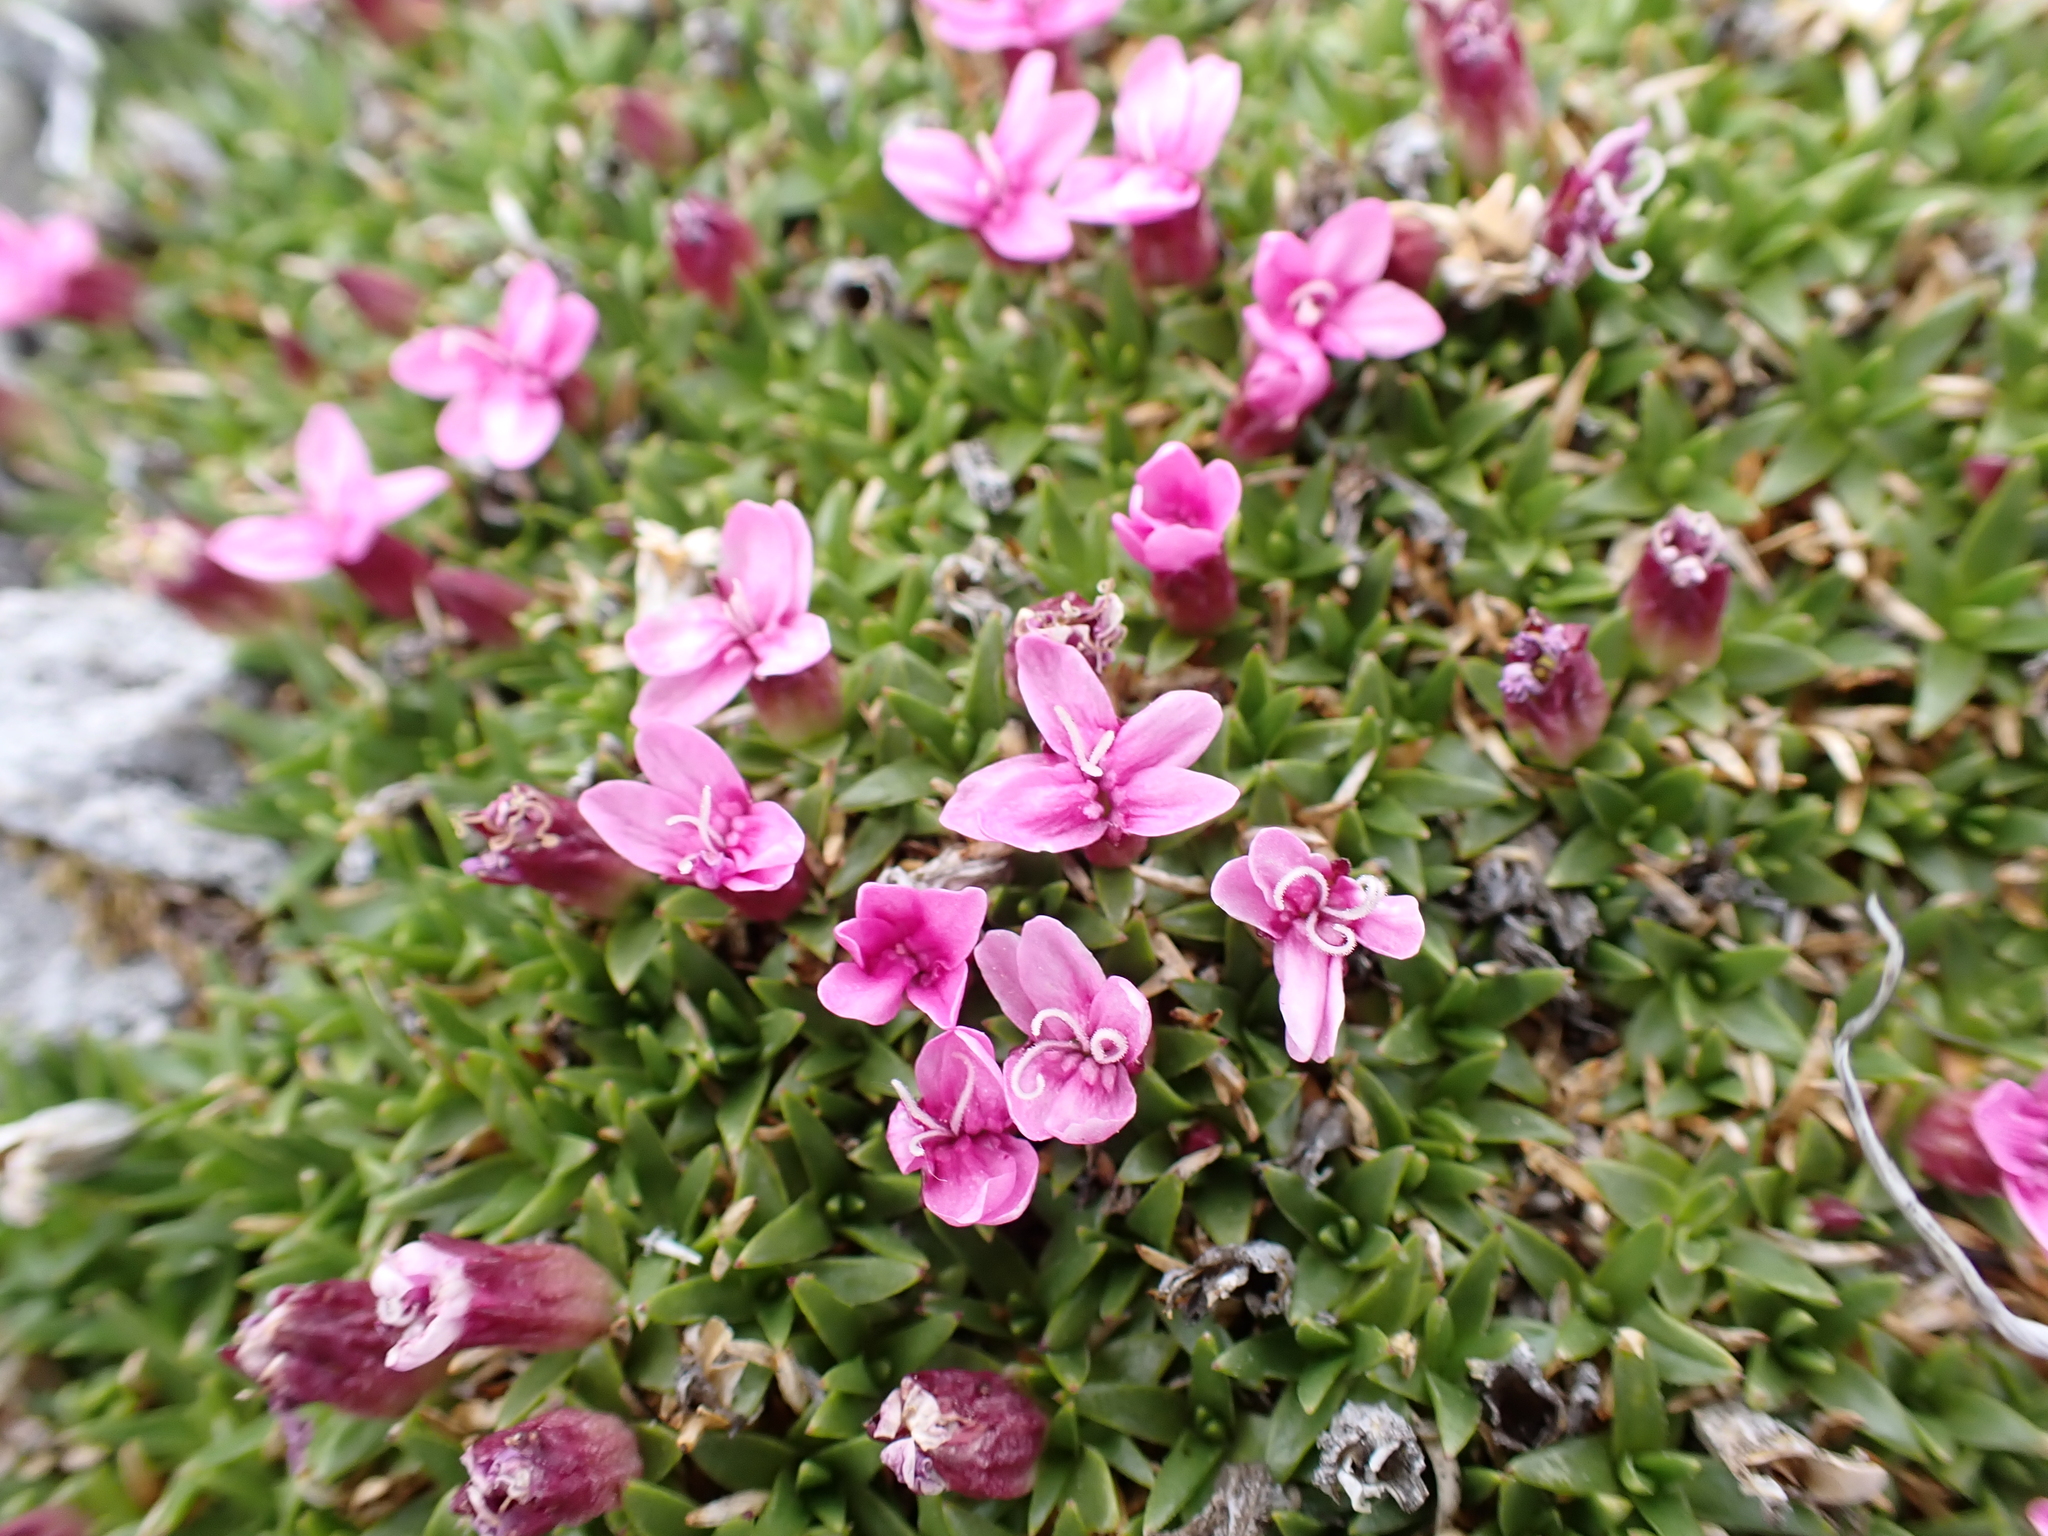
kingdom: Plantae
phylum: Tracheophyta
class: Magnoliopsida
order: Caryophyllales
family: Caryophyllaceae
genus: Silene
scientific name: Silene acaulis
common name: Moss campion
